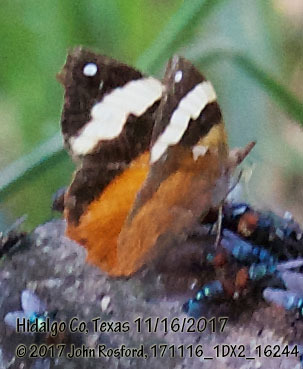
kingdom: Animalia
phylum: Arthropoda
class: Insecta
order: Lepidoptera
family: Nymphalidae
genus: Epiphile
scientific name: Epiphile adrasta
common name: Common banner
